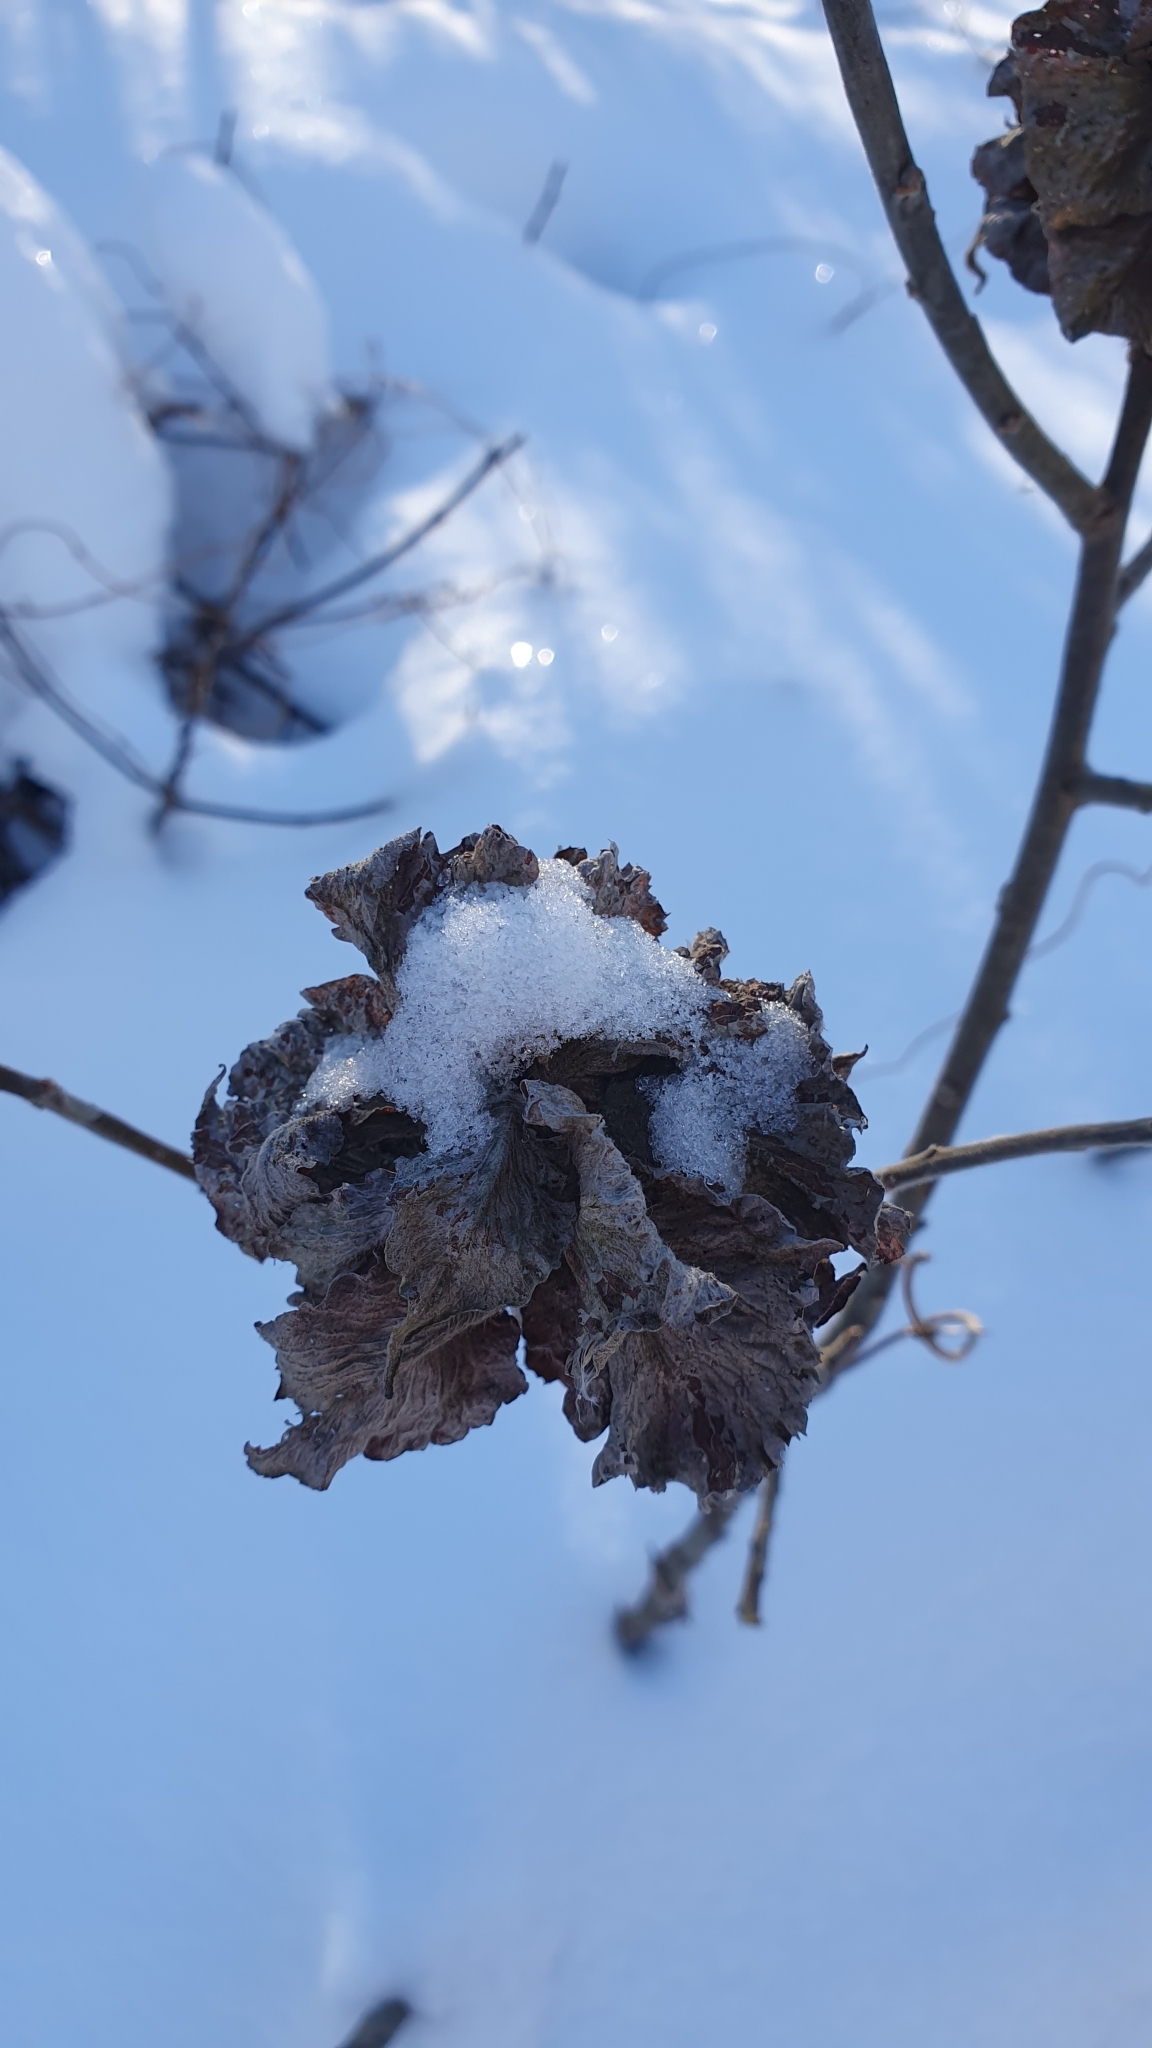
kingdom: Animalia
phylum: Arthropoda
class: Insecta
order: Diptera
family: Cecidomyiidae
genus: Rabdophaga
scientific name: Rabdophaga rosaria
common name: Willow rose gall midge
